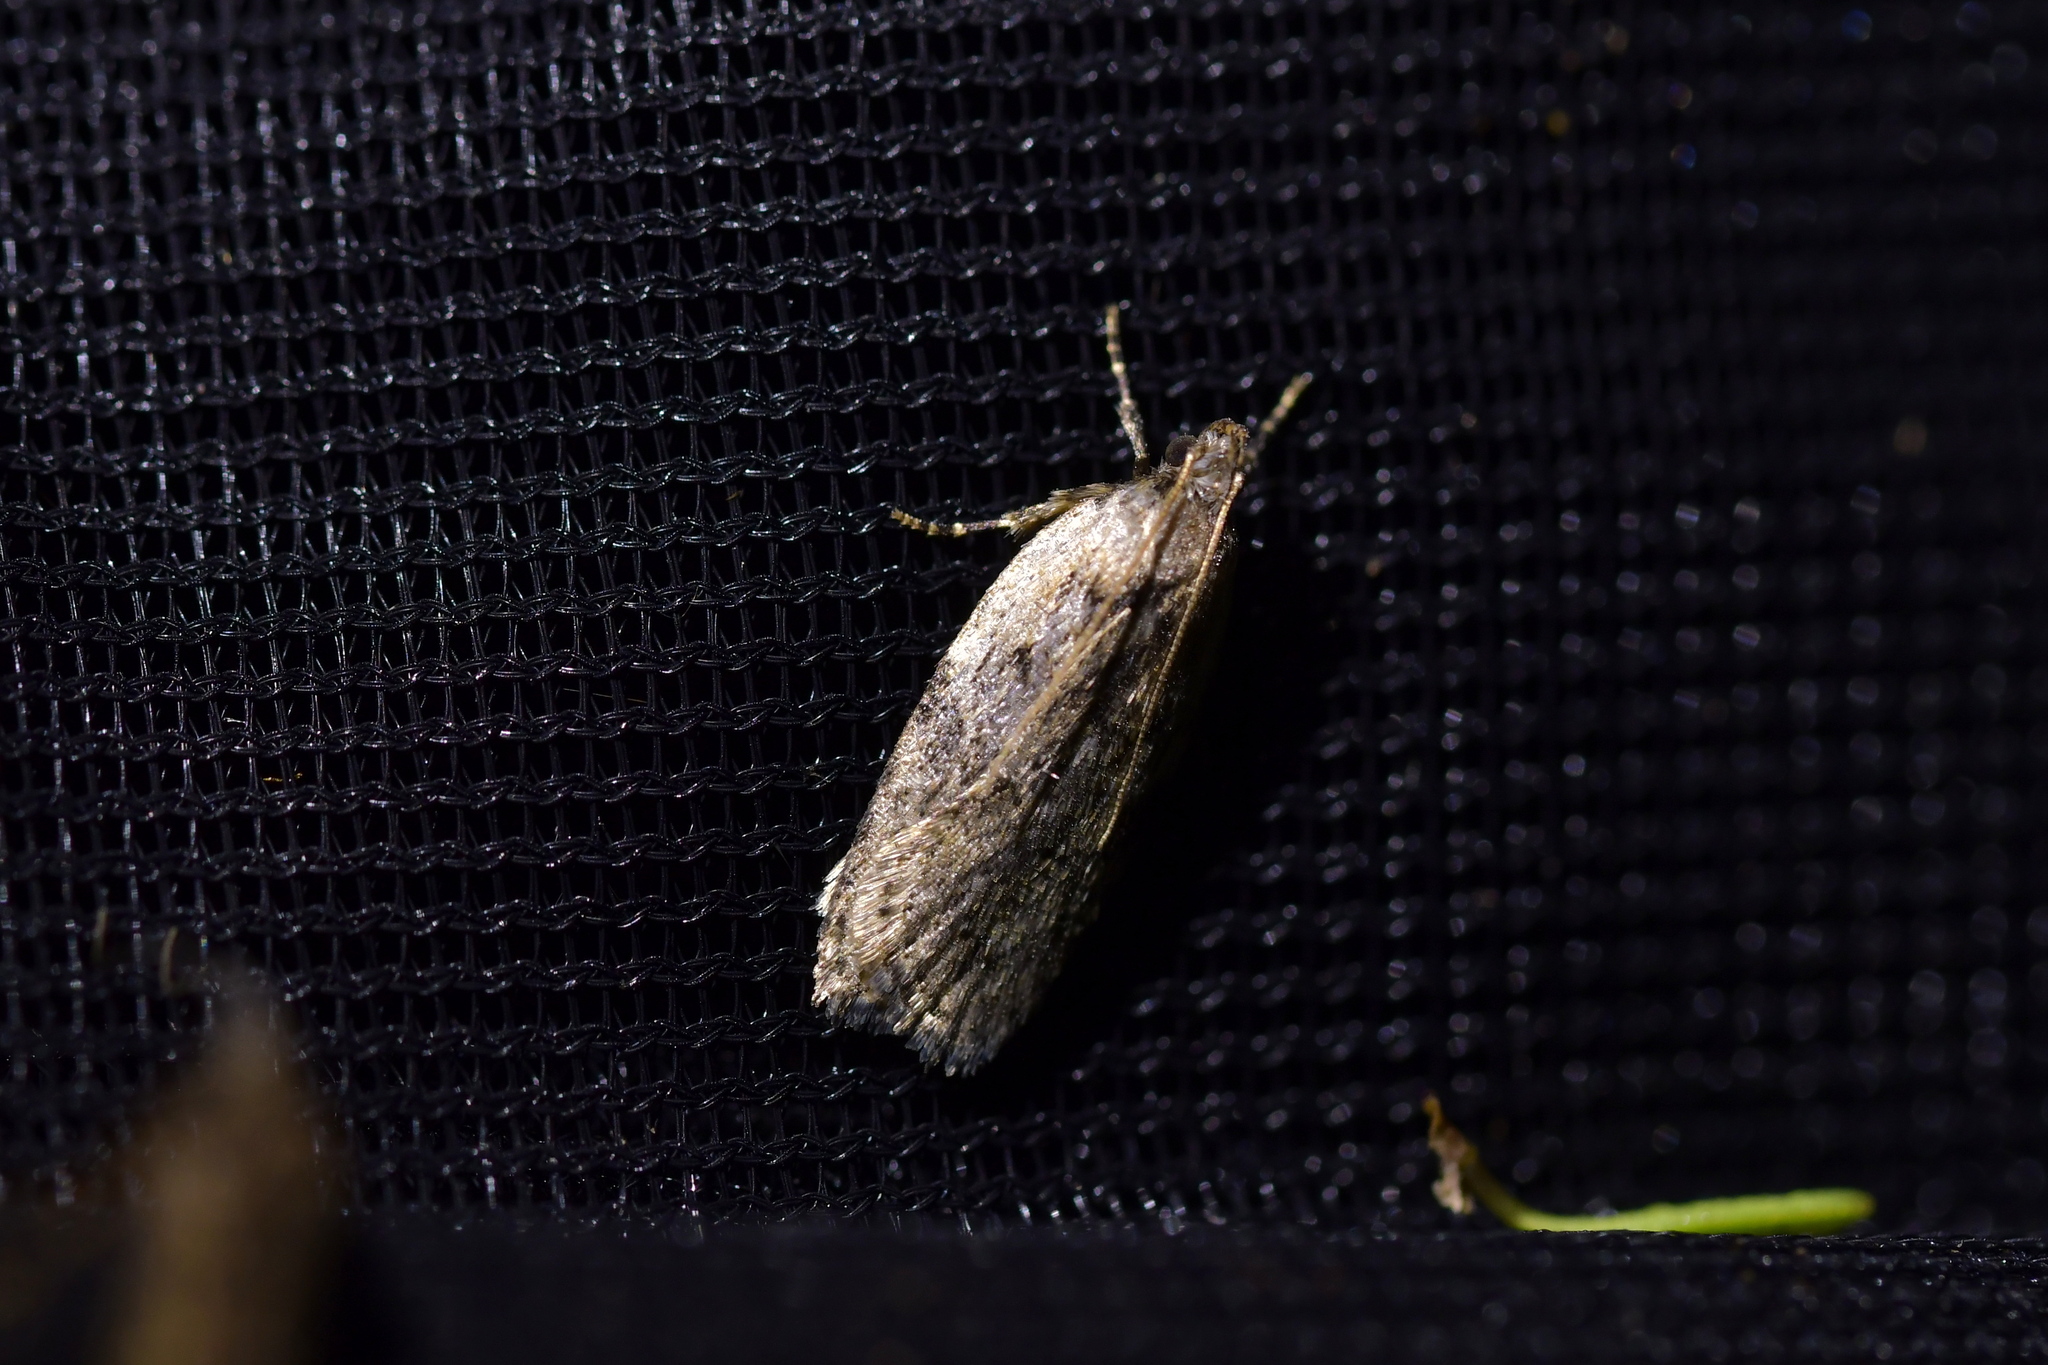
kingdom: Animalia
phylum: Arthropoda
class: Insecta
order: Lepidoptera
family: Depressariidae
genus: Phaeosaces
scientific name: Phaeosaces compsotypa
